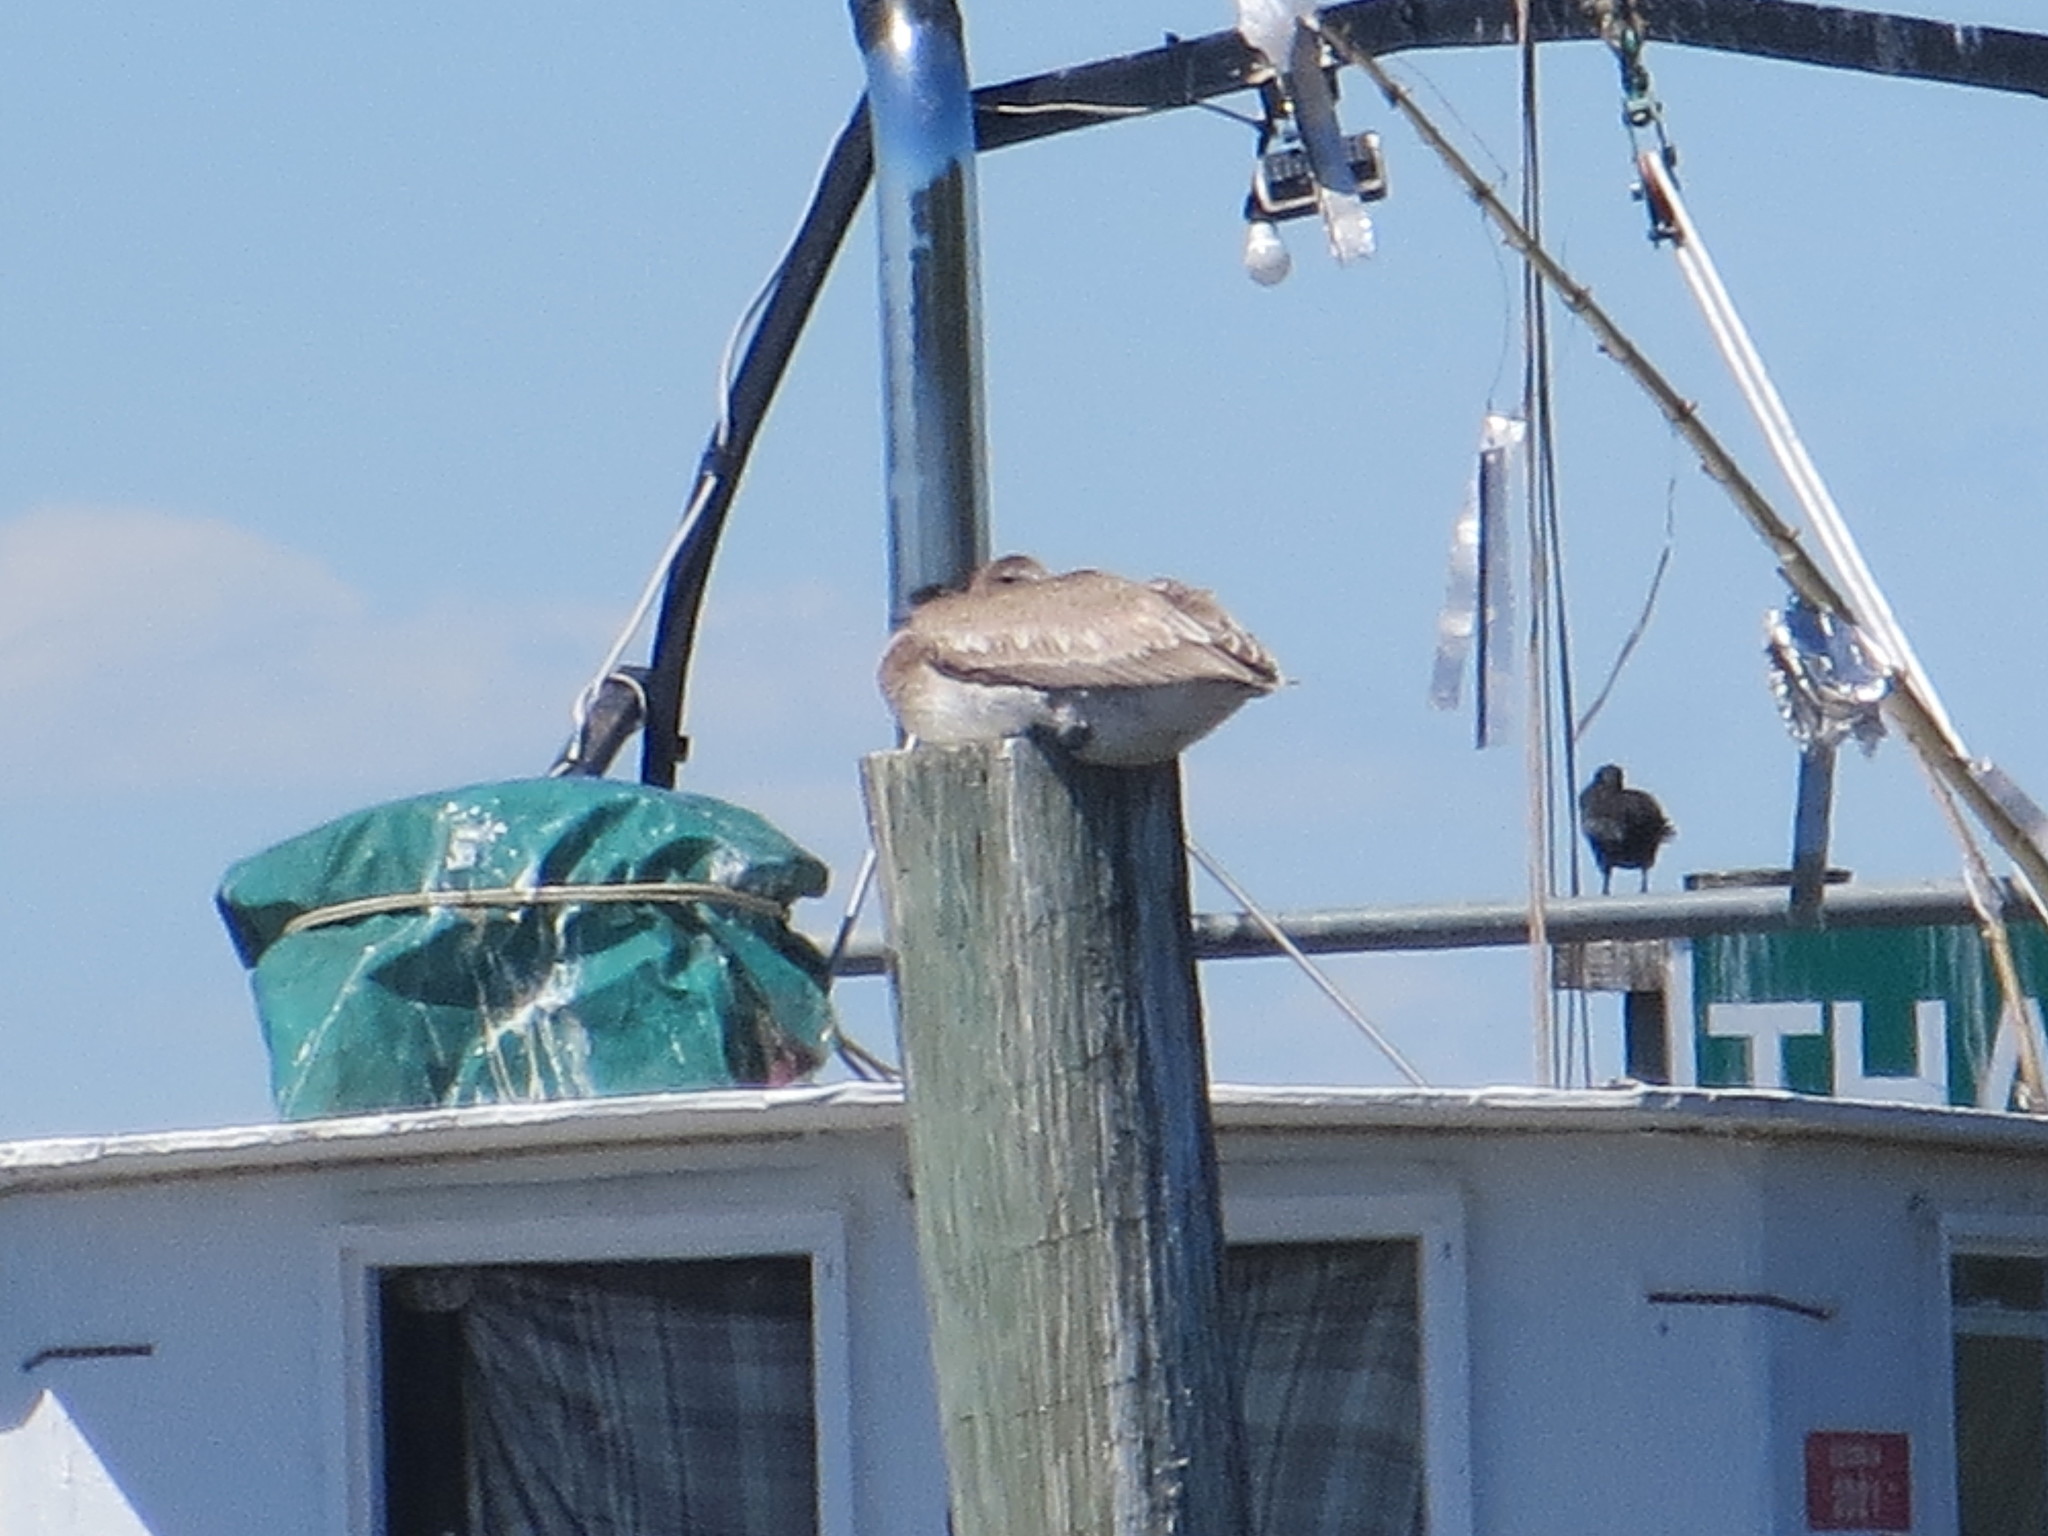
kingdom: Animalia
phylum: Chordata
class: Aves
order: Pelecaniformes
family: Pelecanidae
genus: Pelecanus
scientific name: Pelecanus occidentalis
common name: Brown pelican
